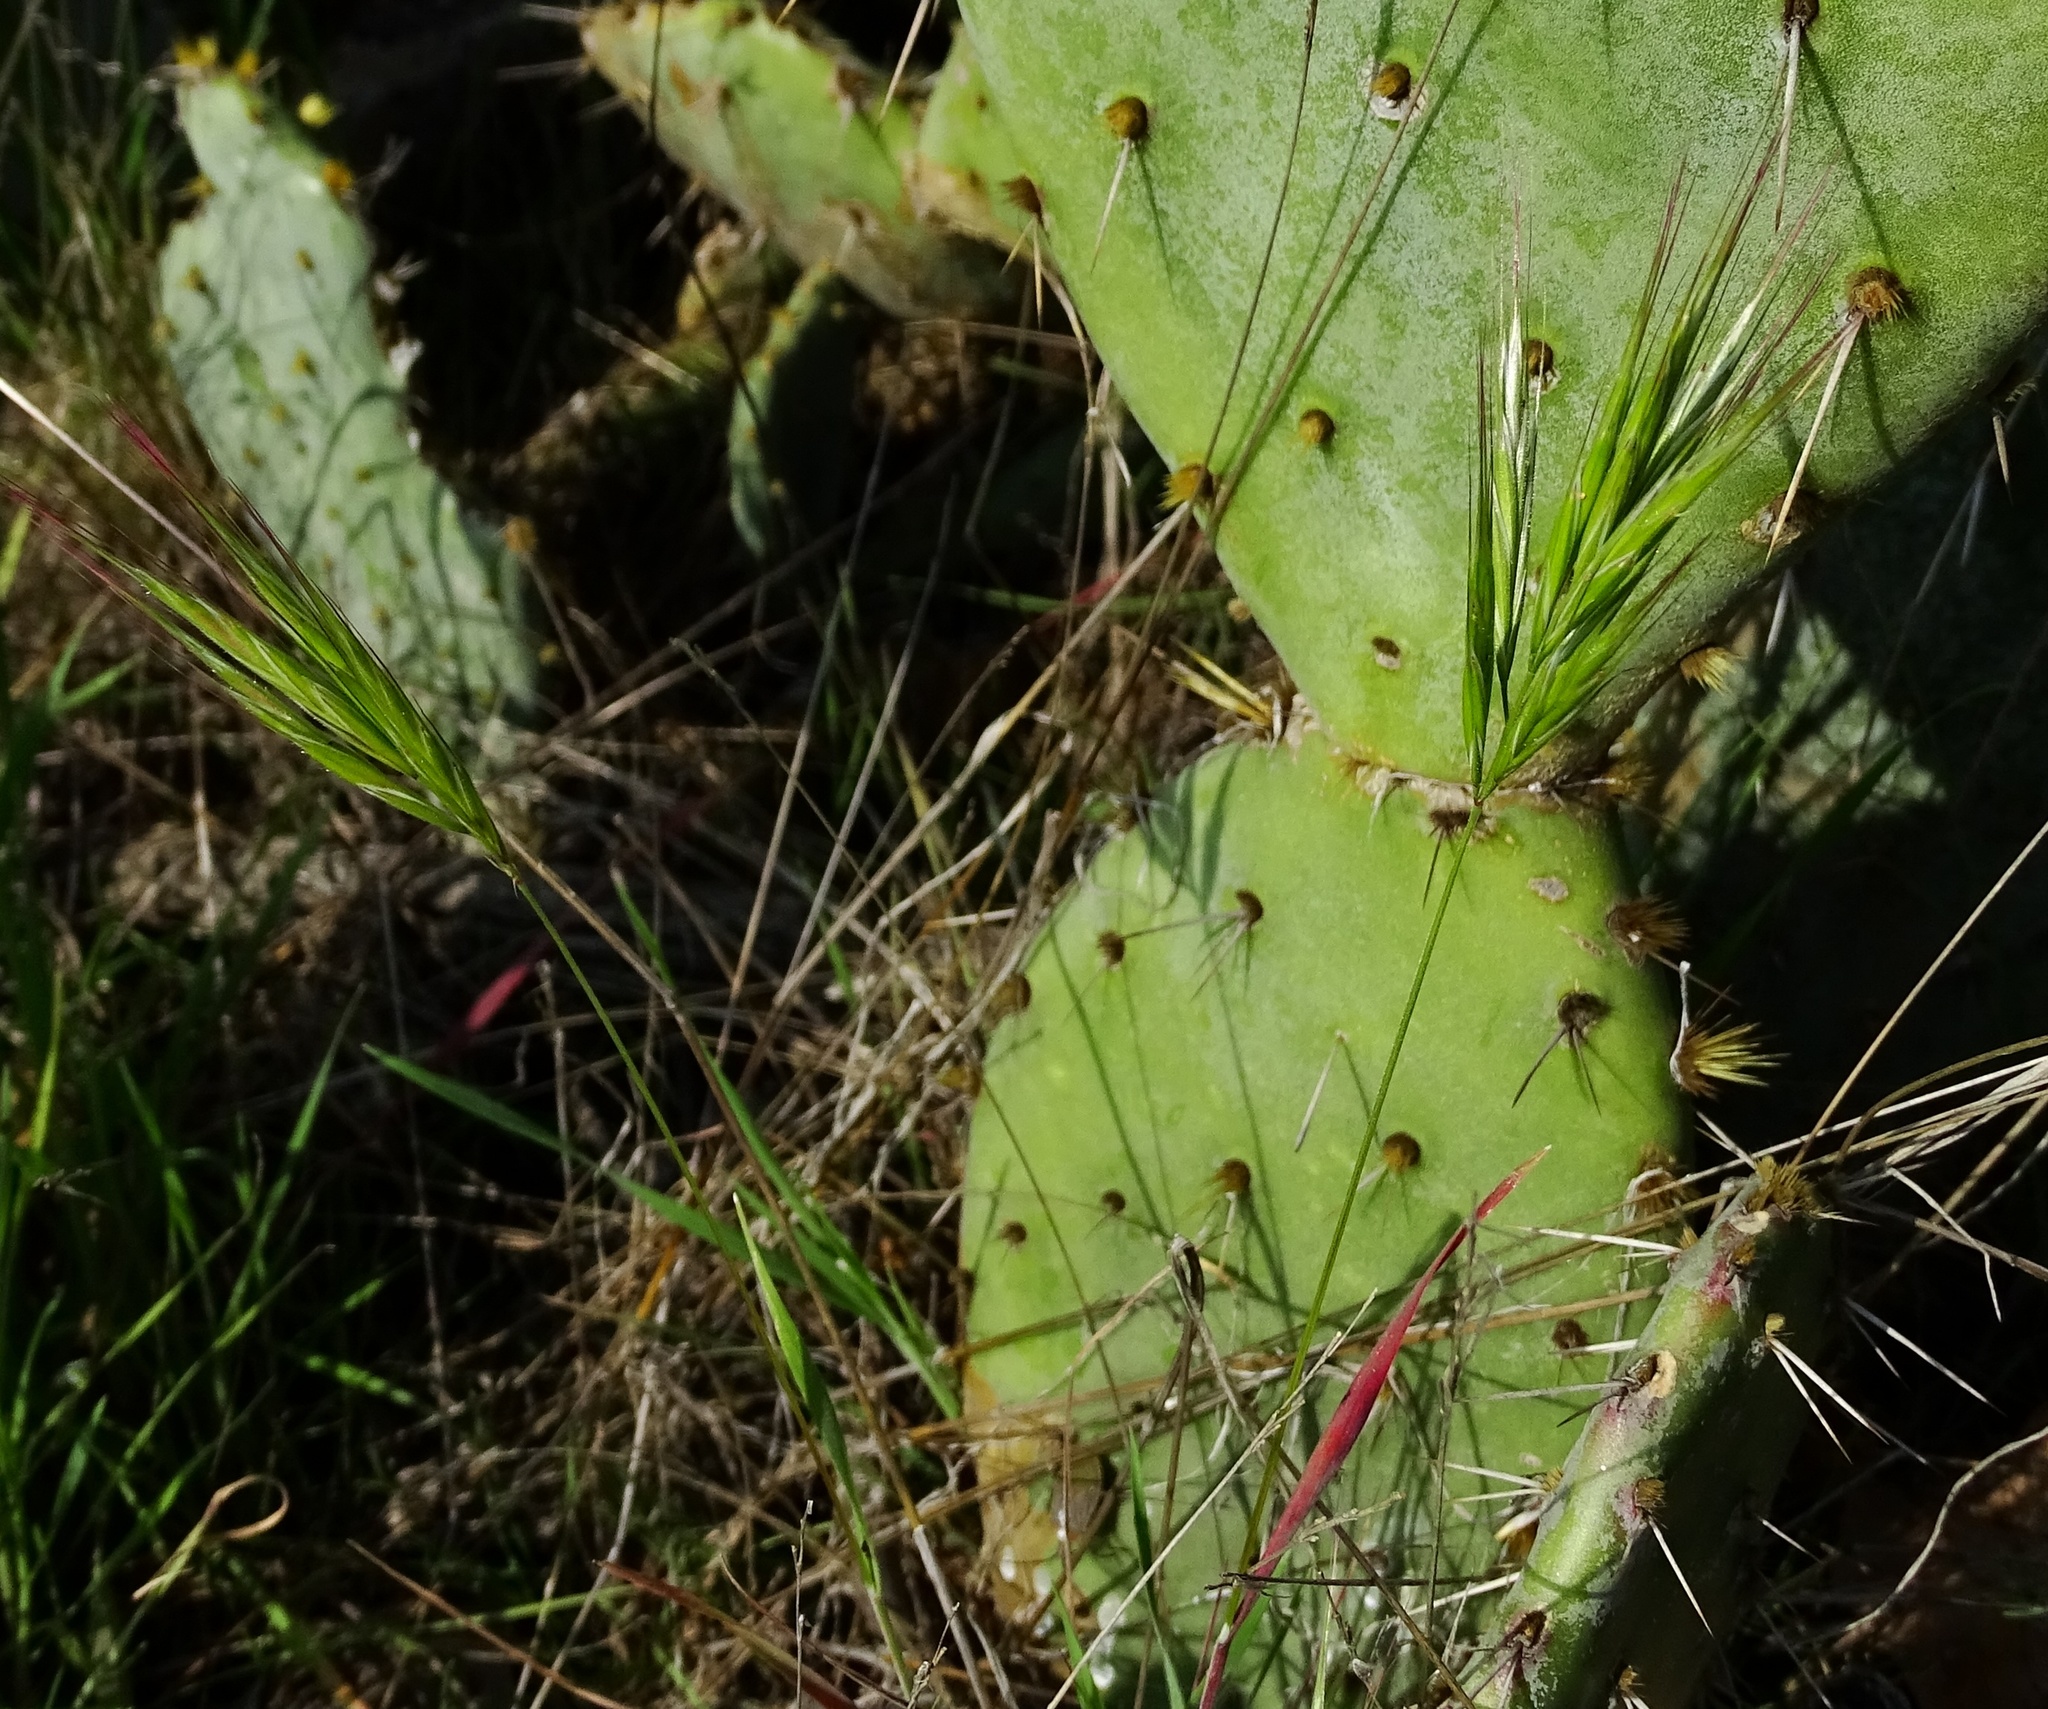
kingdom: Plantae
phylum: Tracheophyta
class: Liliopsida
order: Poales
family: Poaceae
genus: Bromus
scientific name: Bromus madritensis
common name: Compact brome
